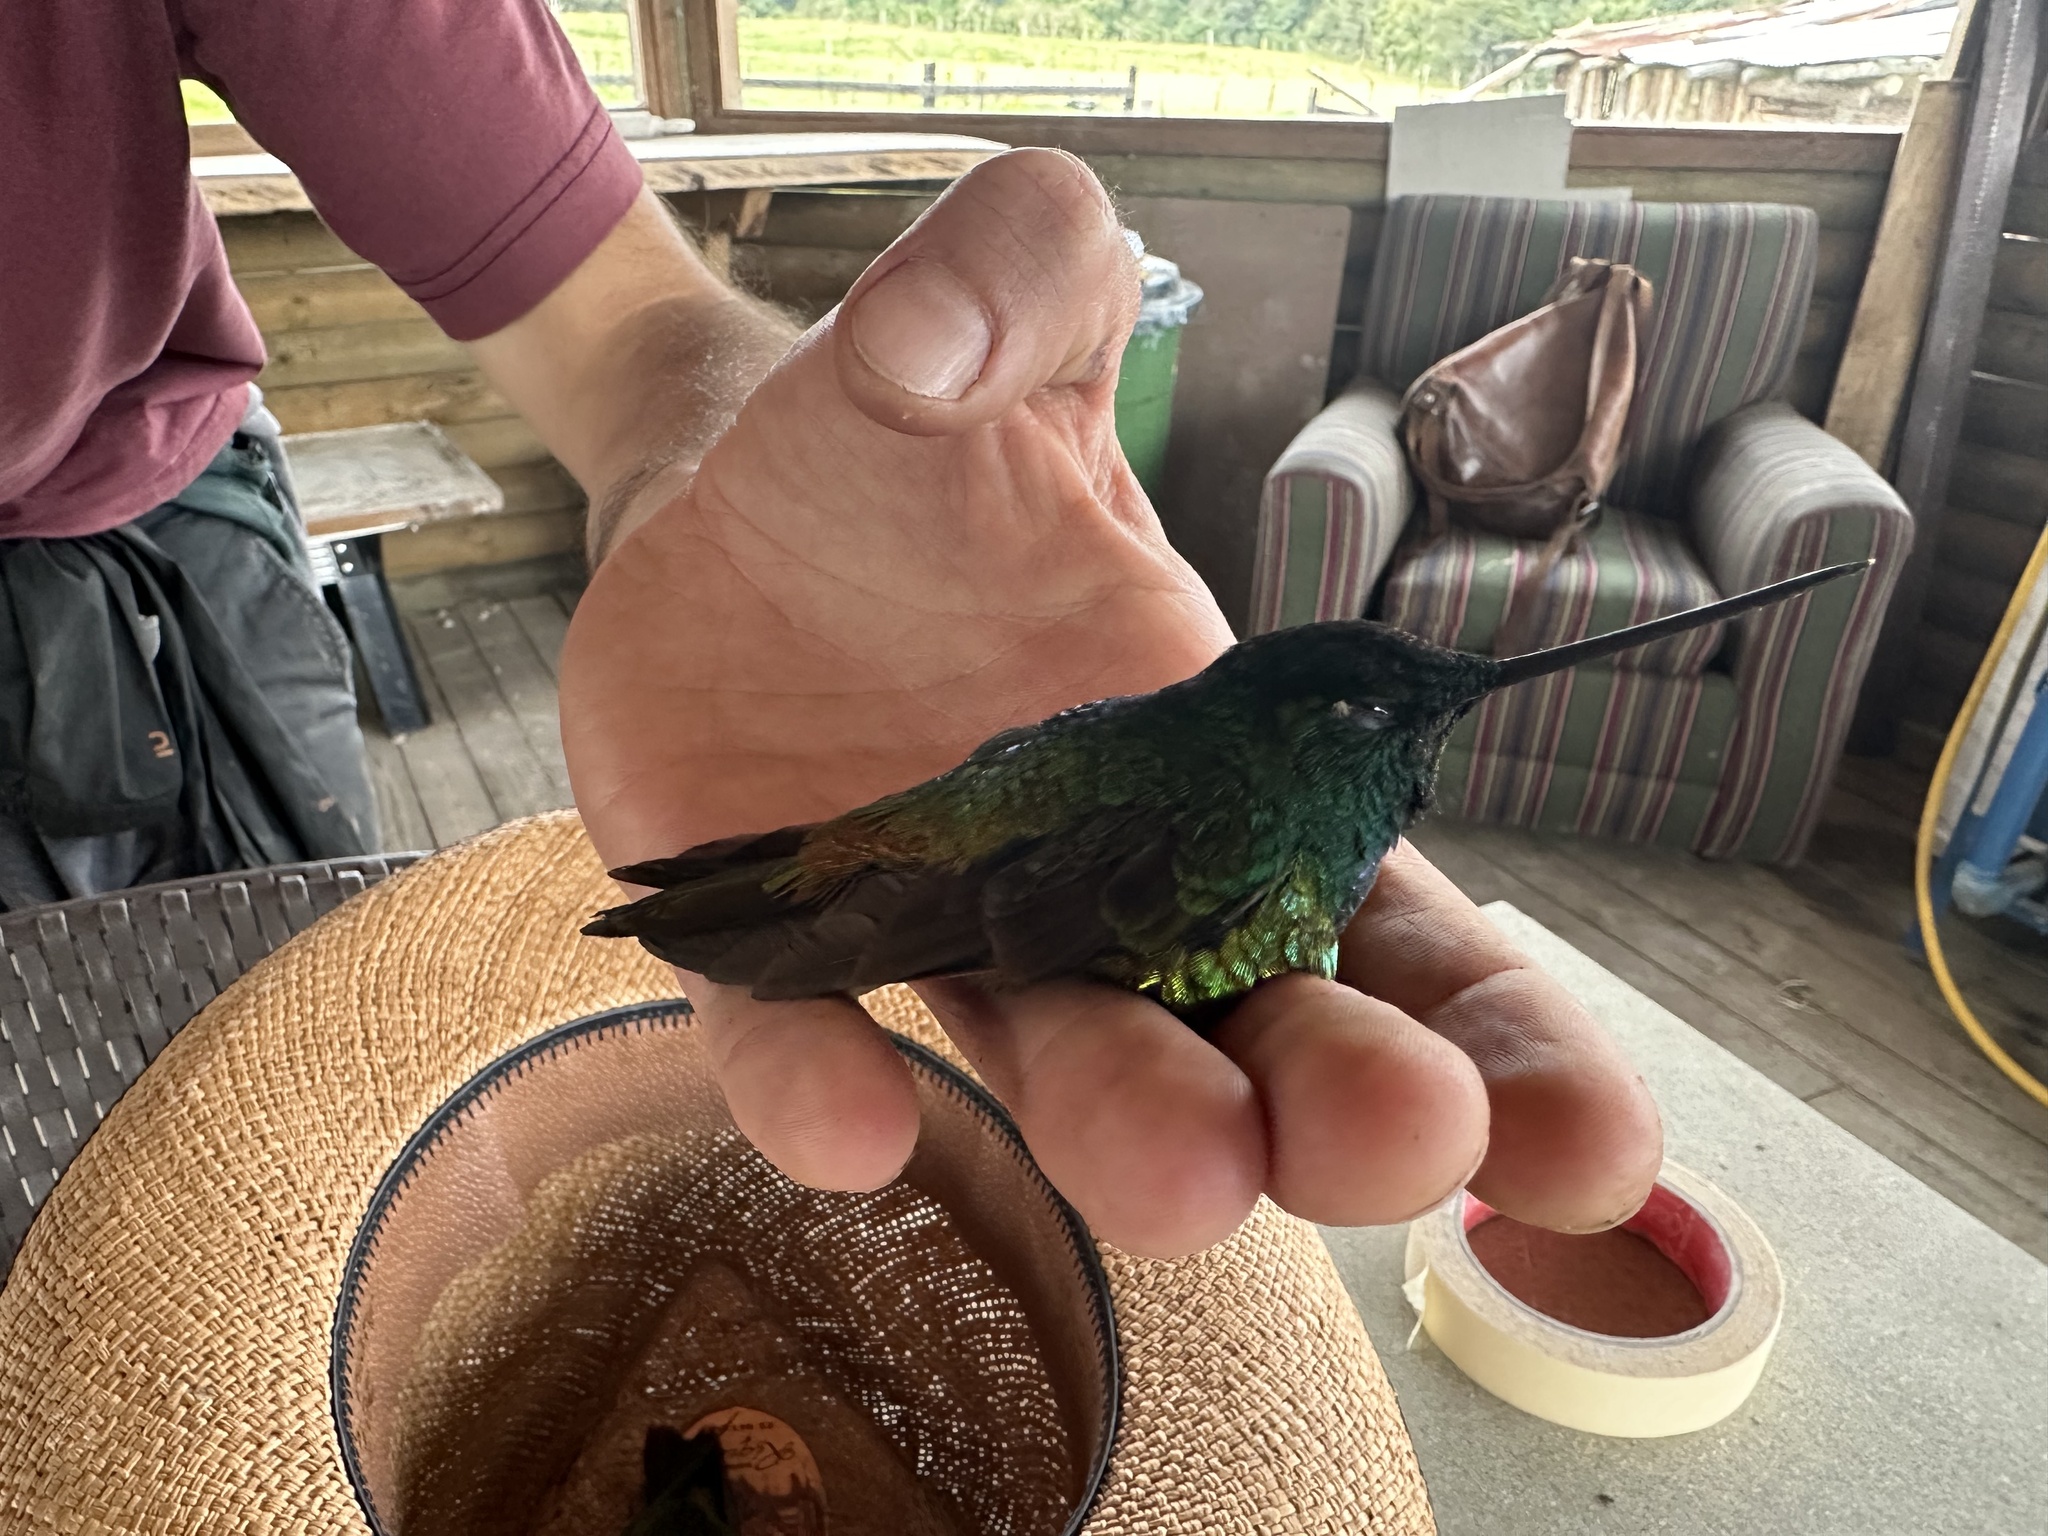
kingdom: Animalia
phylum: Chordata
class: Aves
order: Apodiformes
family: Trochilidae
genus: Coeligena
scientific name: Coeligena bonapartei
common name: Golden-bellied starfrontlet
